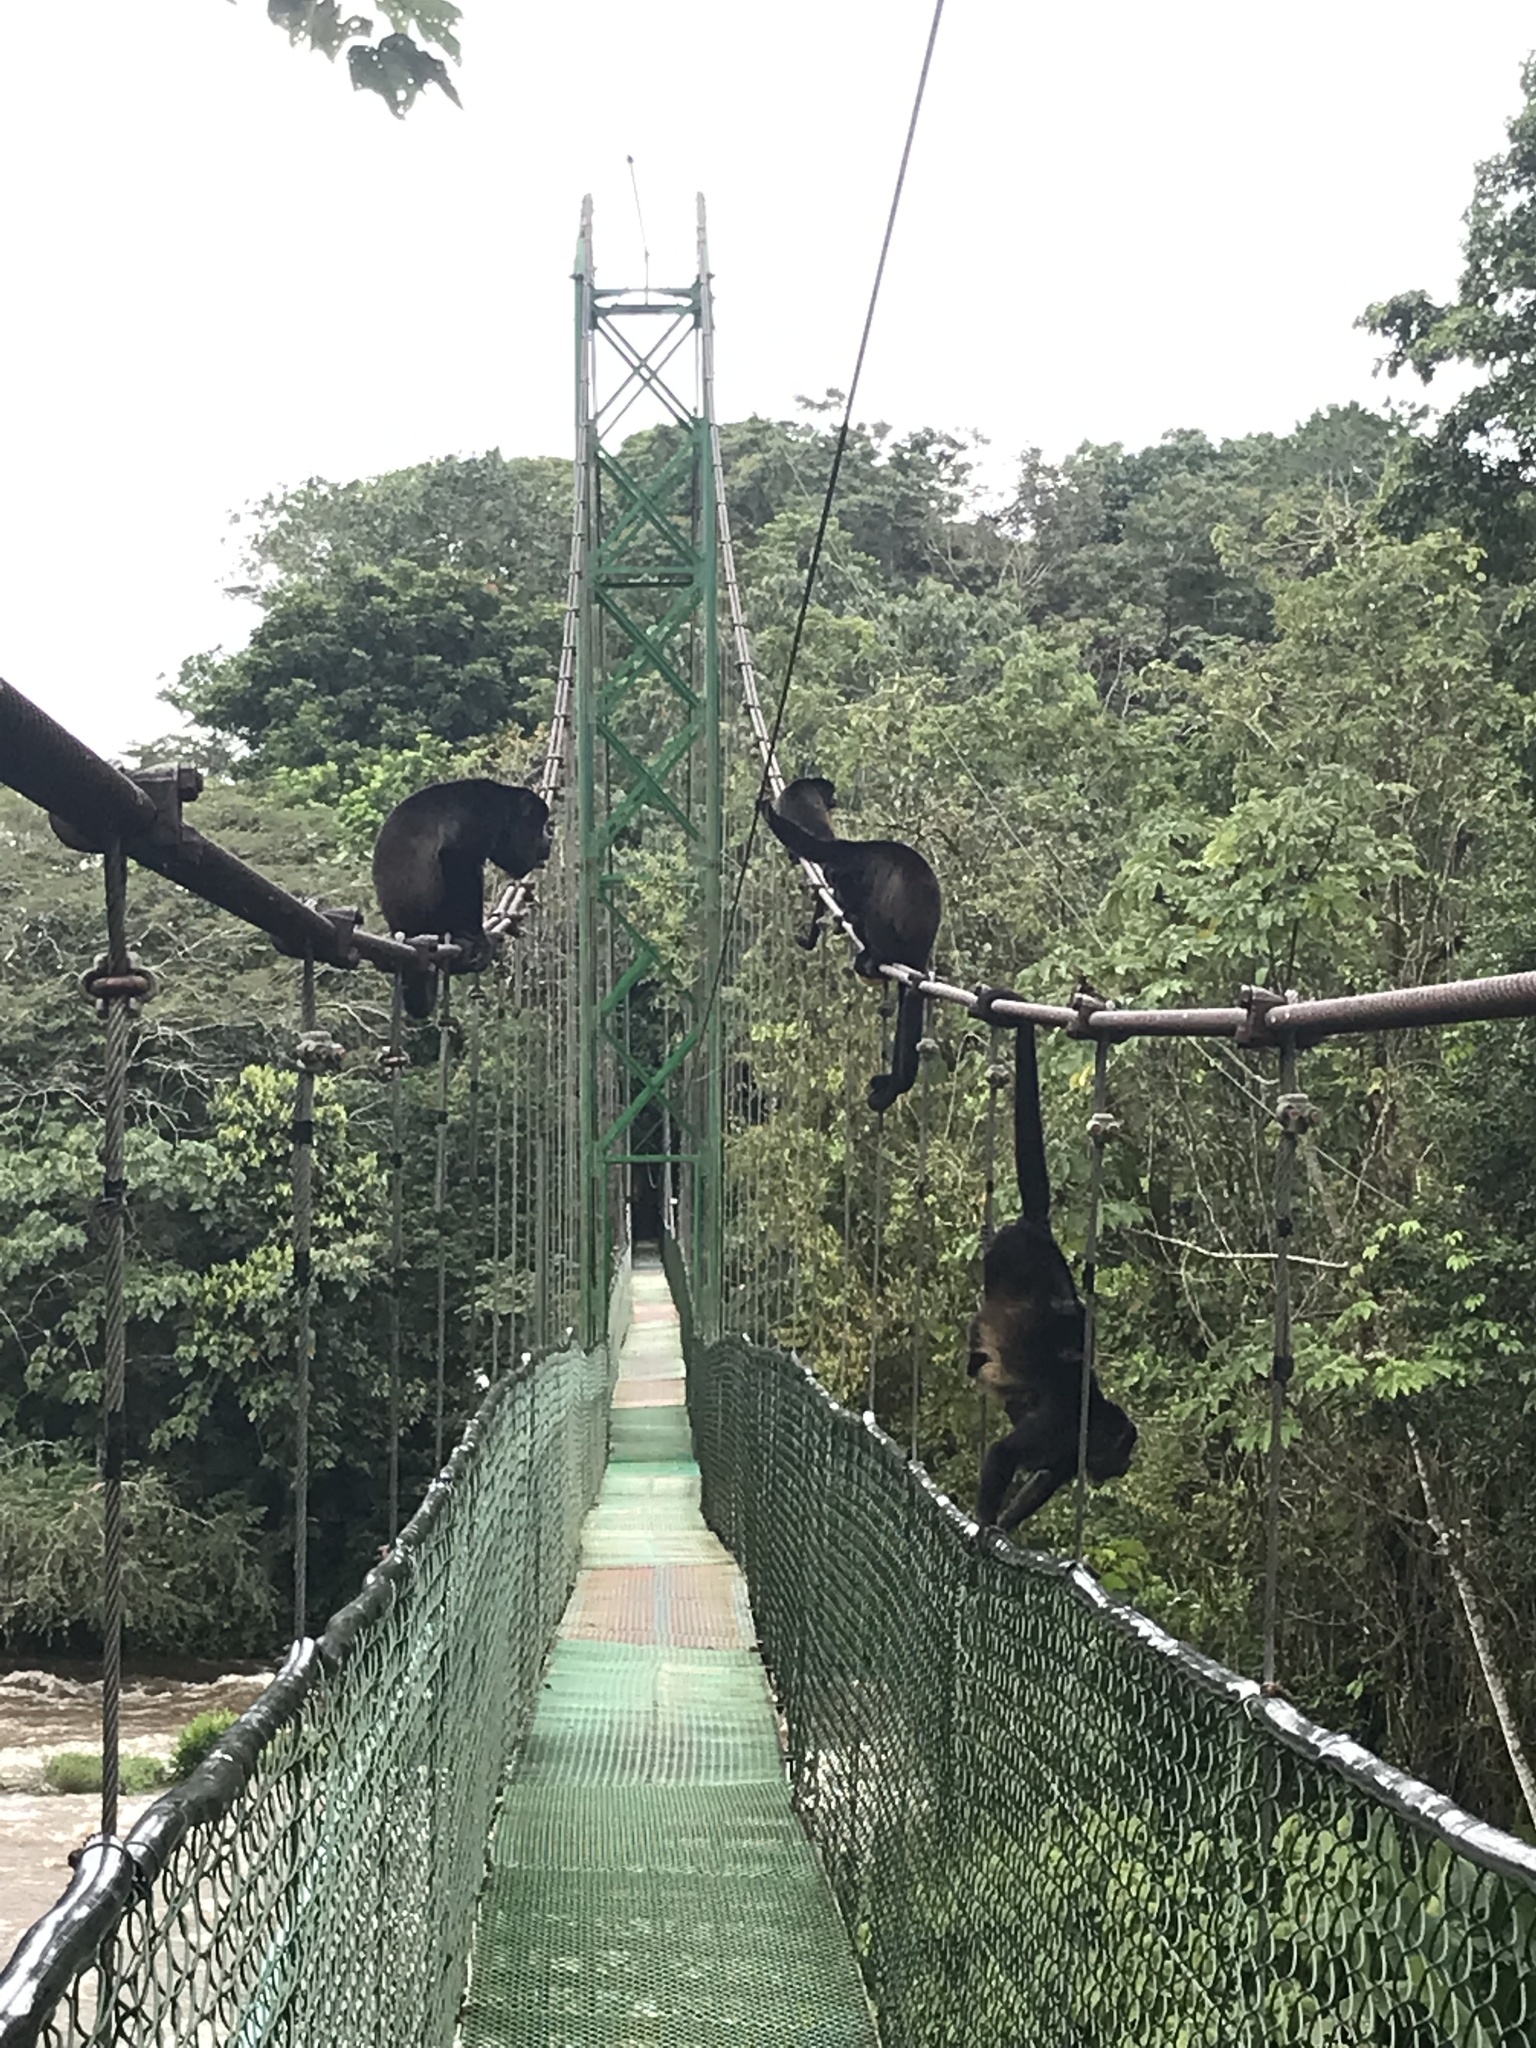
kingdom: Animalia
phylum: Chordata
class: Mammalia
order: Primates
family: Atelidae
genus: Alouatta
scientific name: Alouatta palliata
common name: Mantled howler
